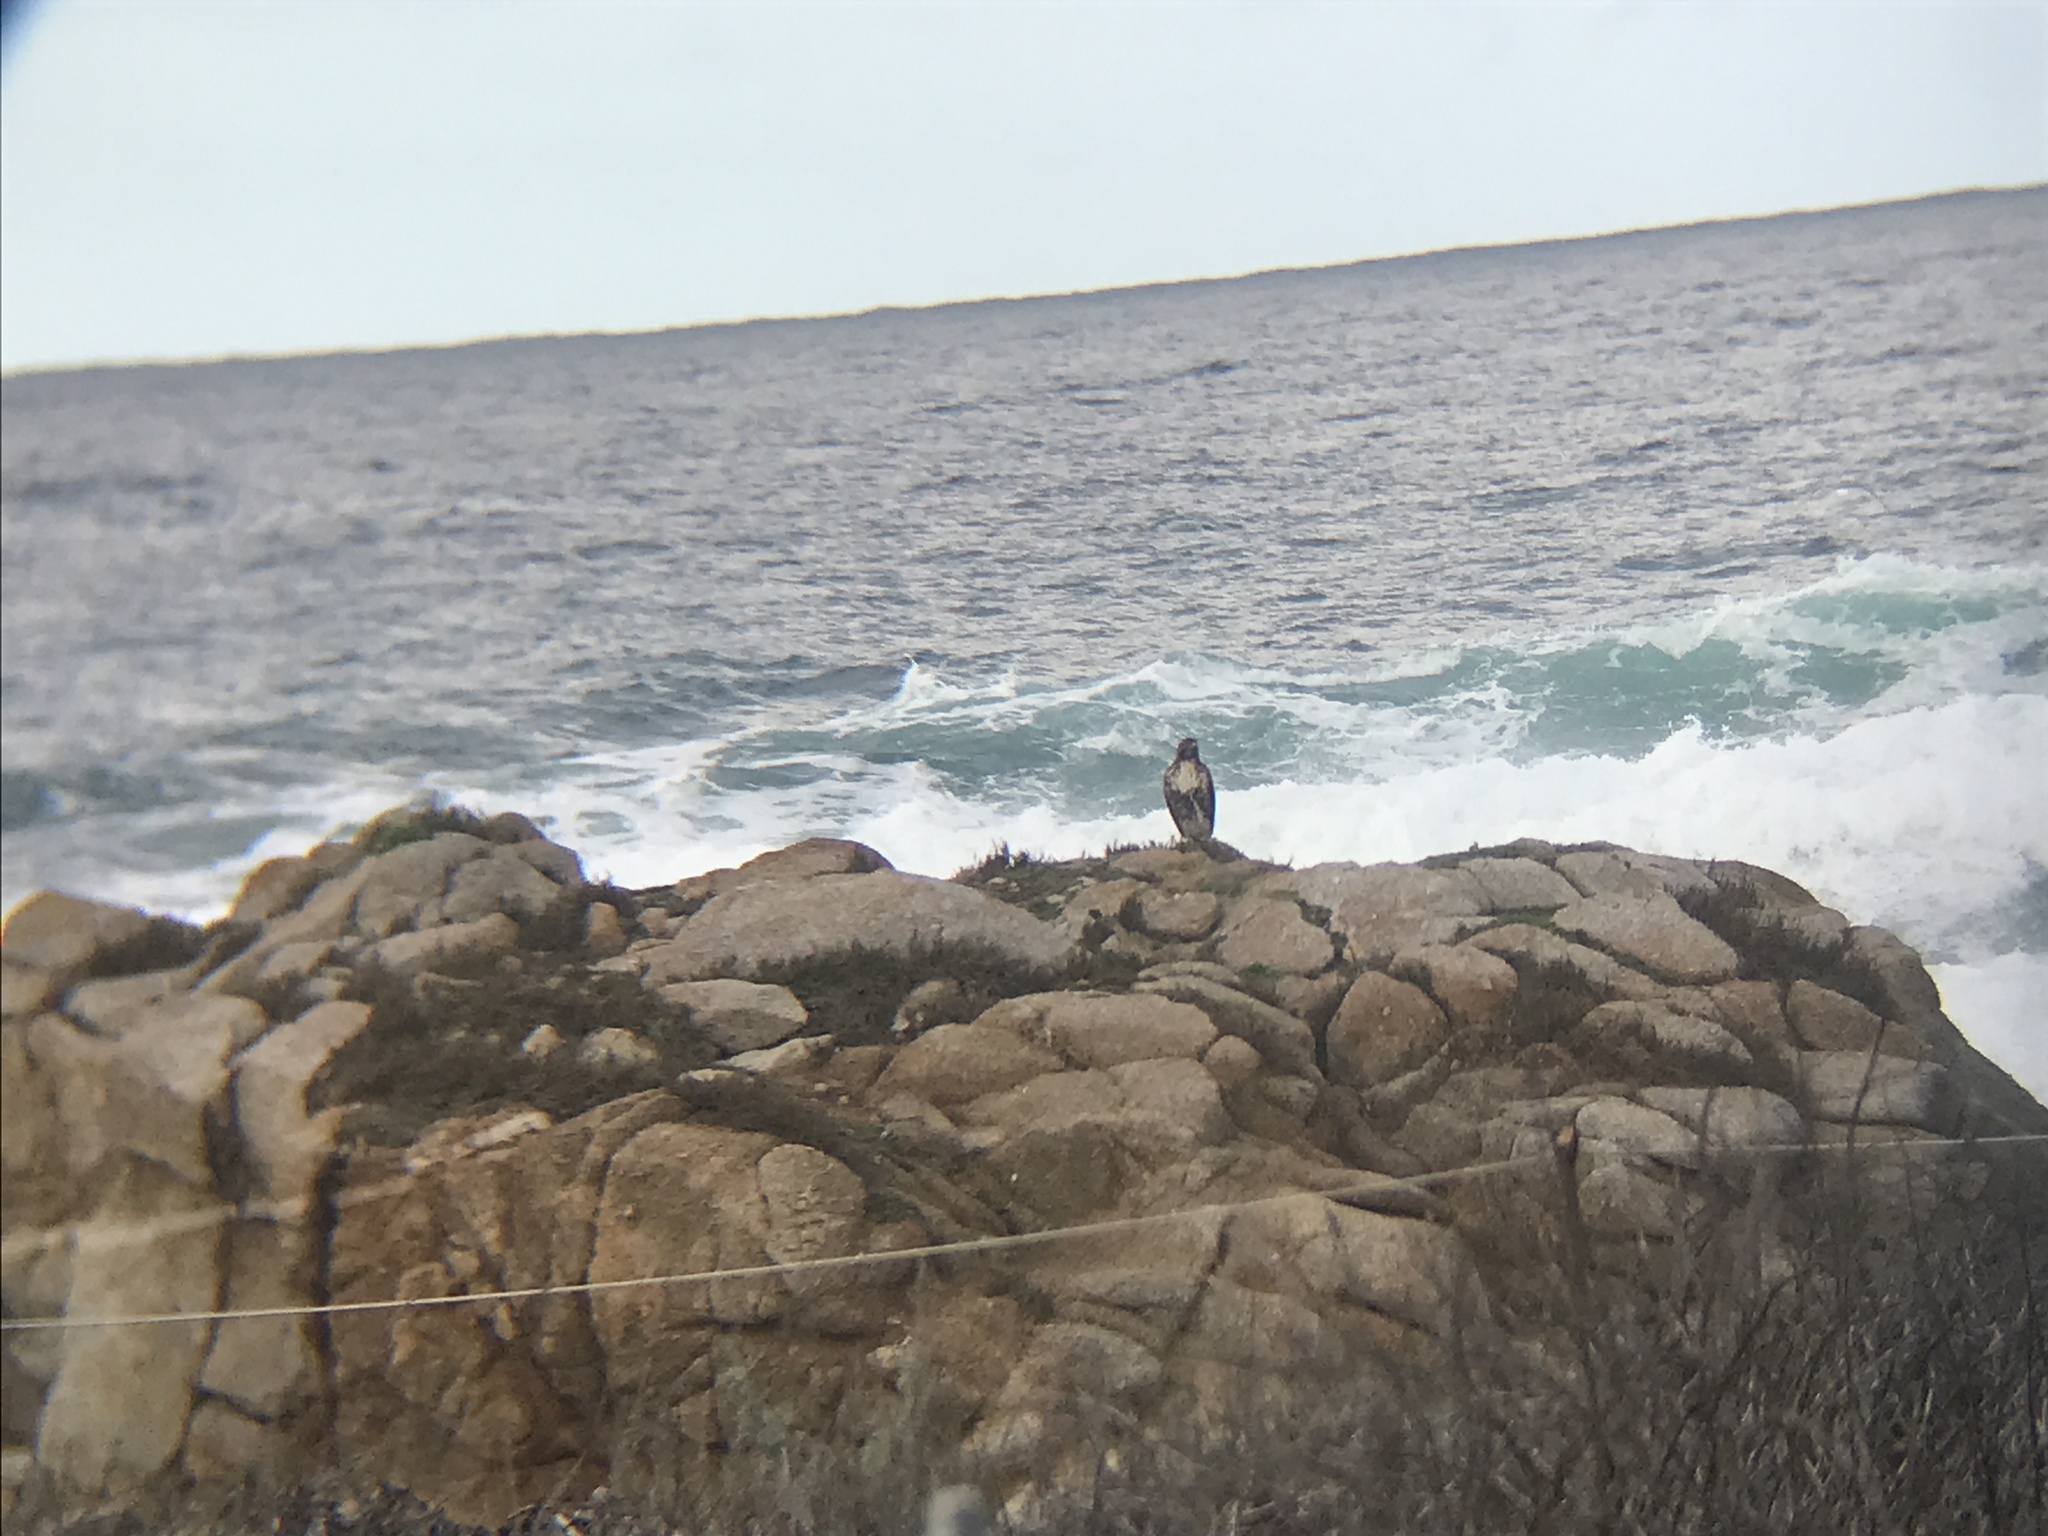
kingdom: Animalia
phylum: Chordata
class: Aves
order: Accipitriformes
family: Accipitridae
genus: Buteo
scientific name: Buteo jamaicensis
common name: Red-tailed hawk
